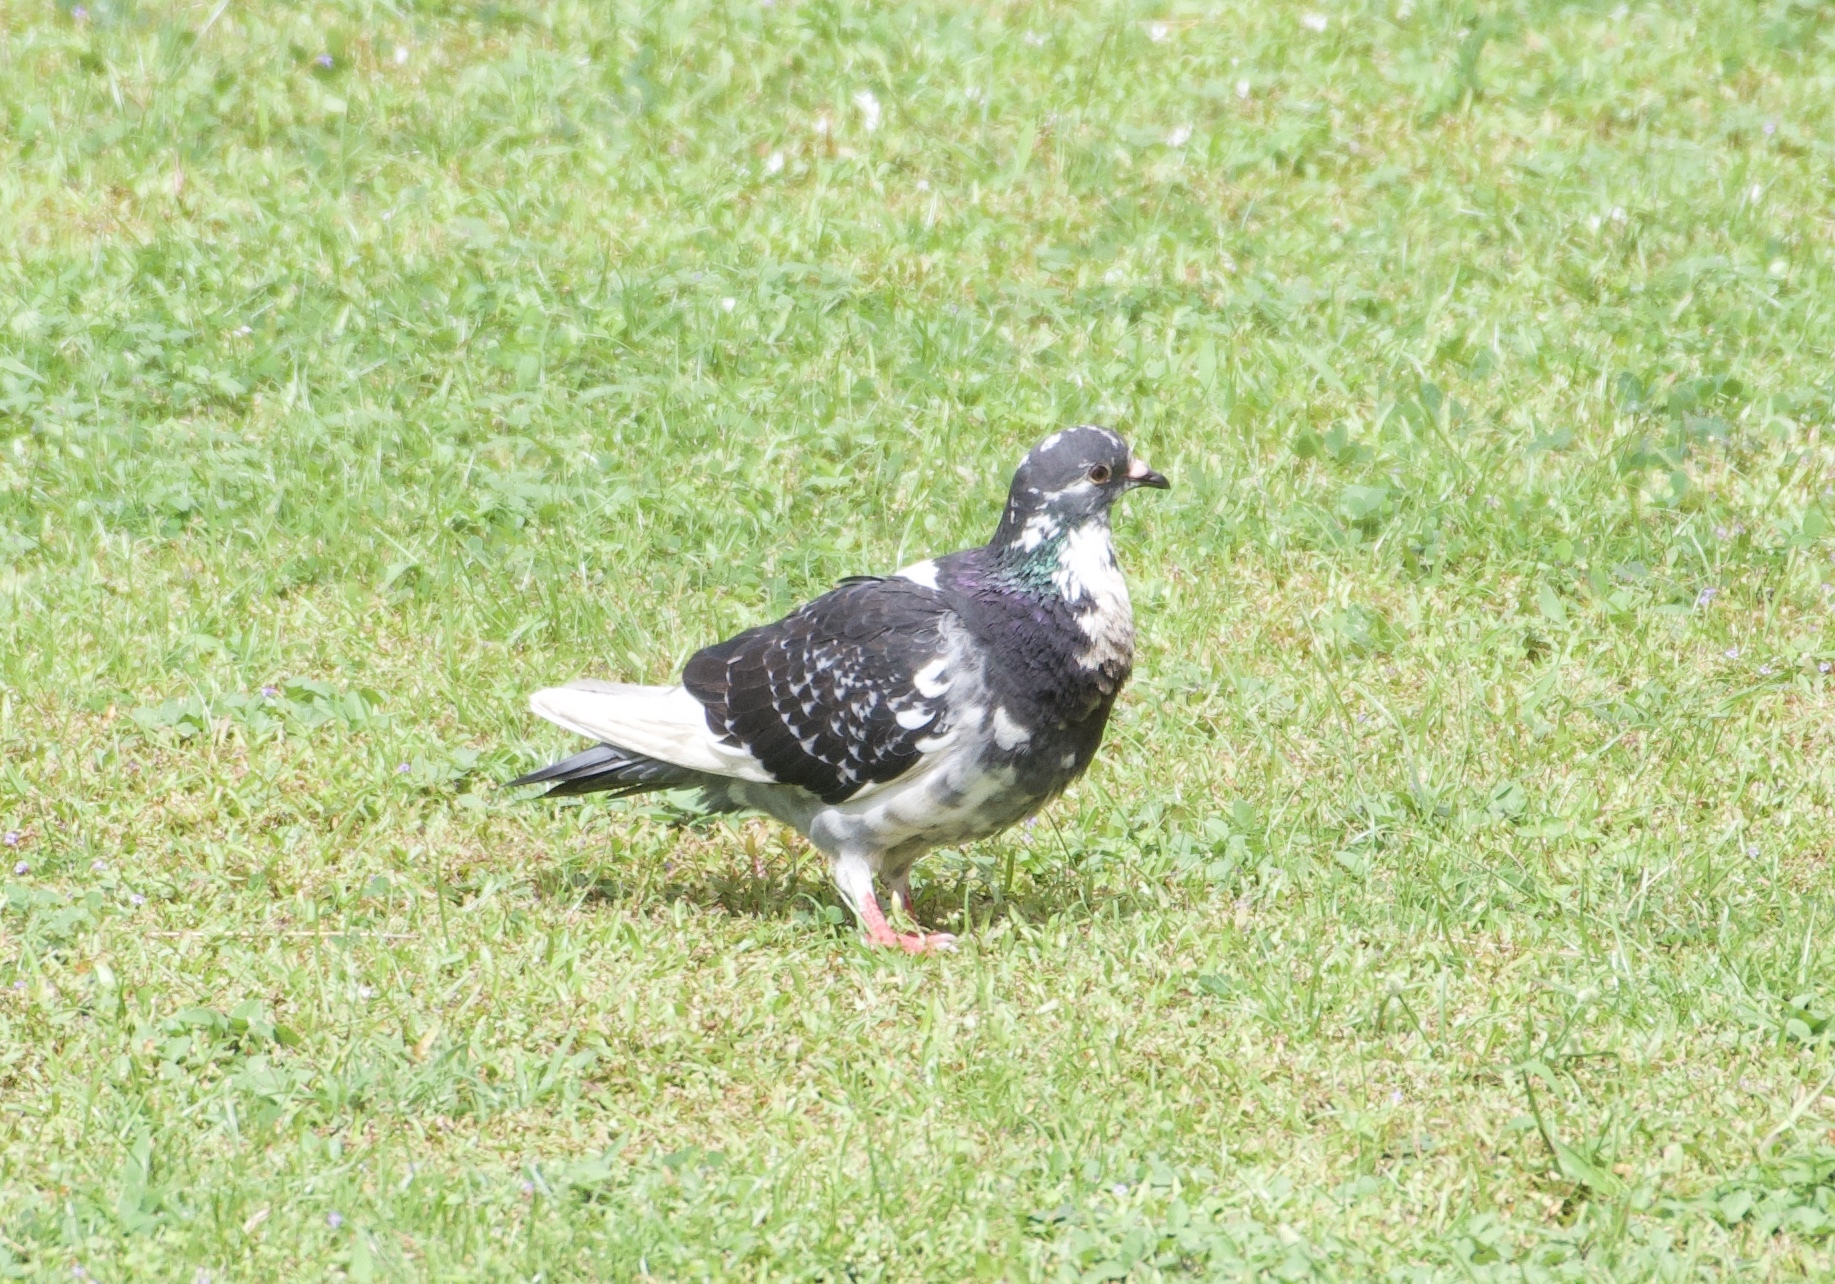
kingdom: Animalia
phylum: Chordata
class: Aves
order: Columbiformes
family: Columbidae
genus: Columba
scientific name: Columba livia
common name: Rock pigeon
